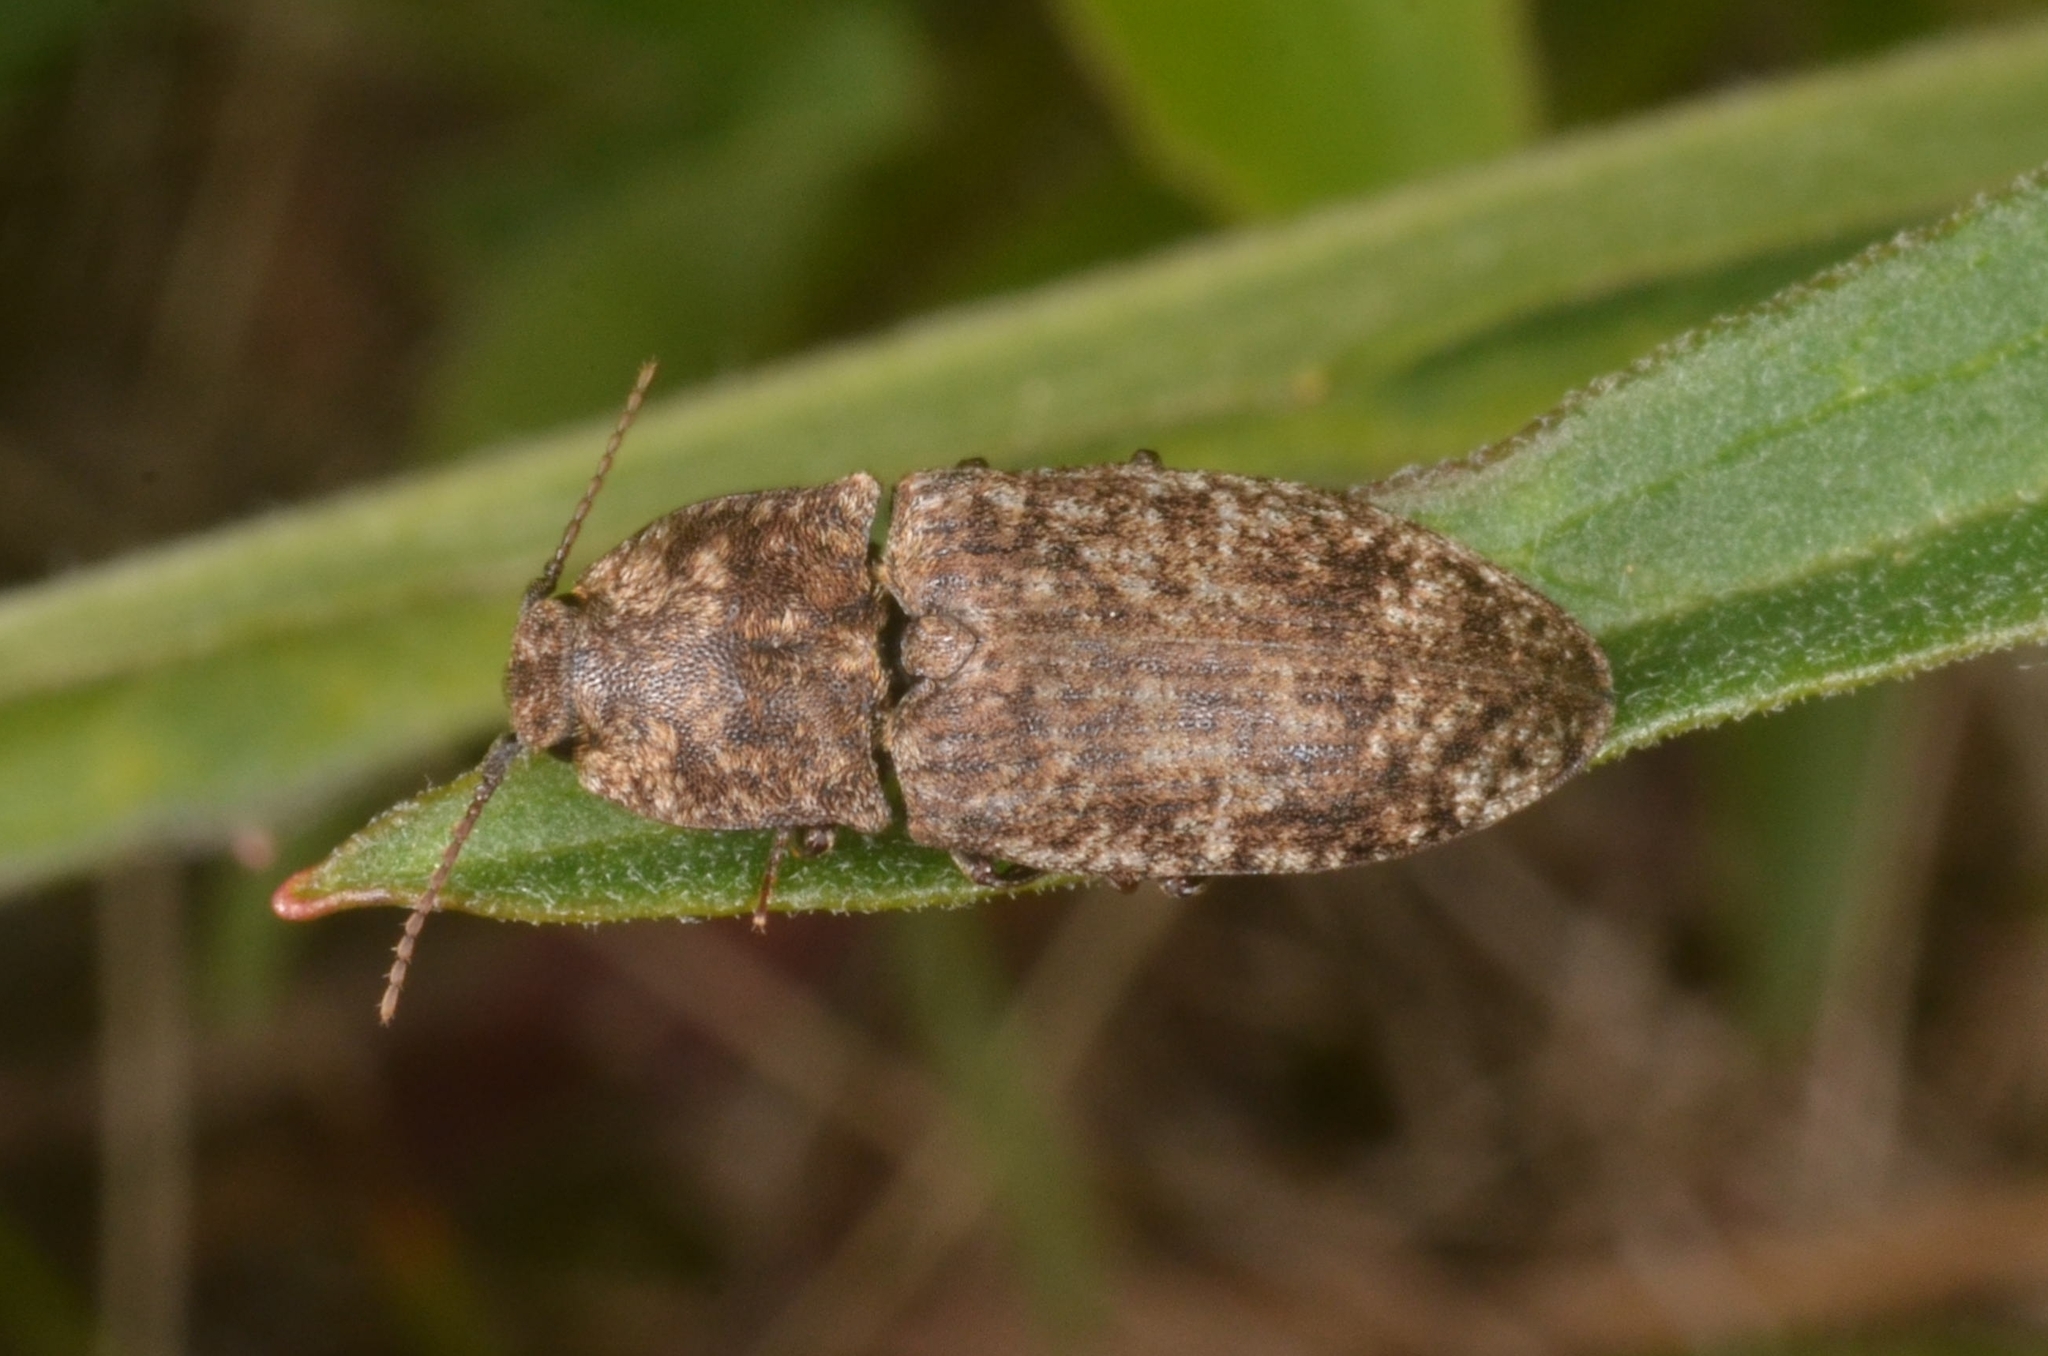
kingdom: Animalia
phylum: Arthropoda
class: Insecta
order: Coleoptera
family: Elateridae
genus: Agrypnus
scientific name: Agrypnus murinus
